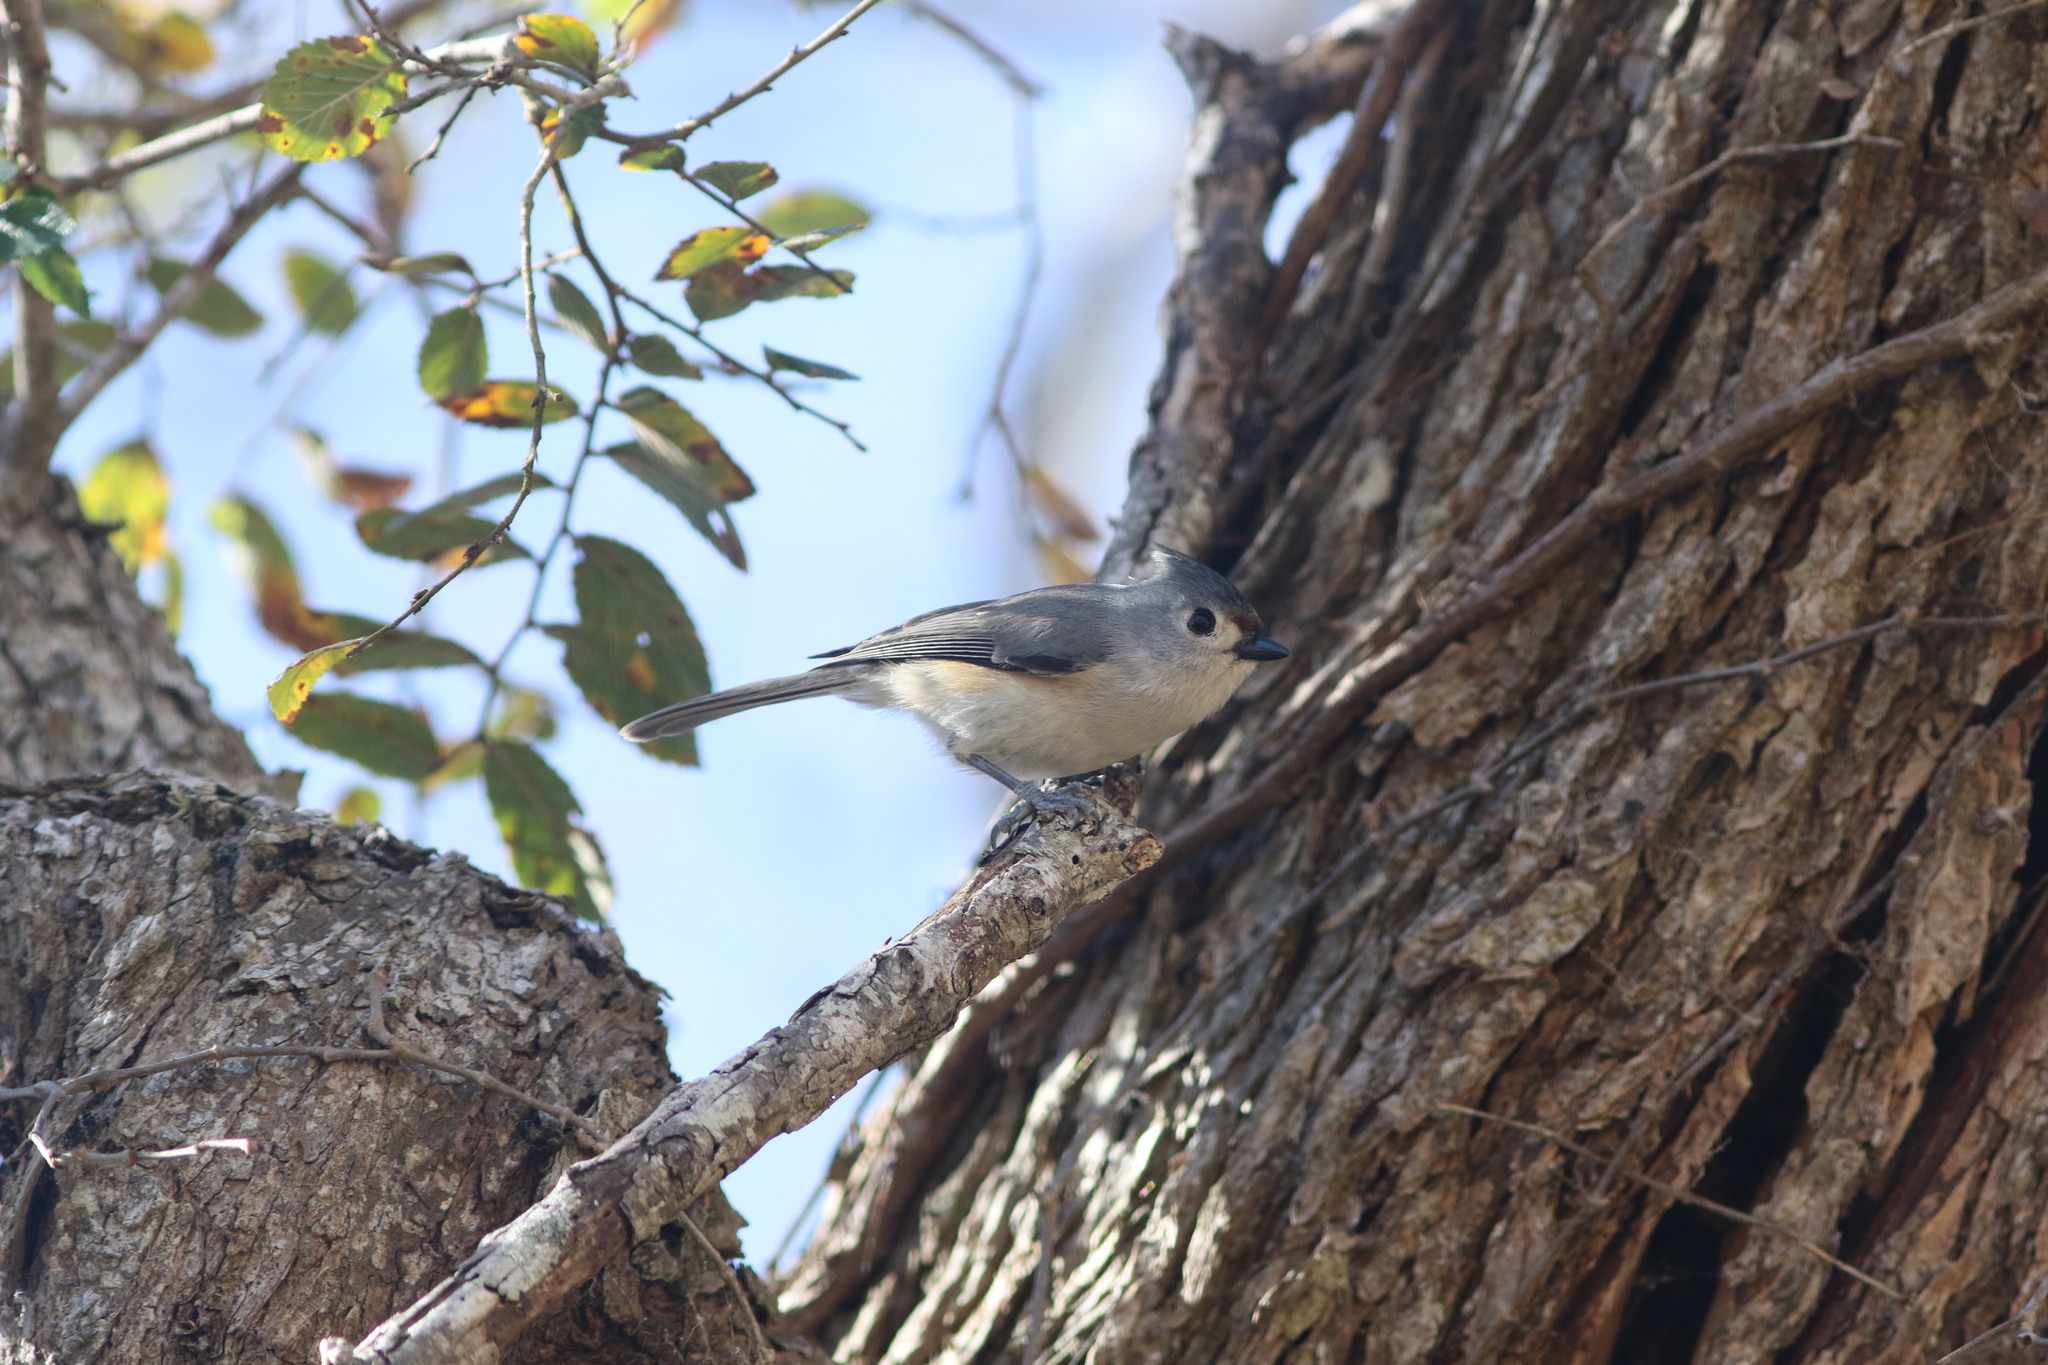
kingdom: Animalia
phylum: Chordata
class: Aves
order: Passeriformes
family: Paridae
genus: Baeolophus
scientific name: Baeolophus
